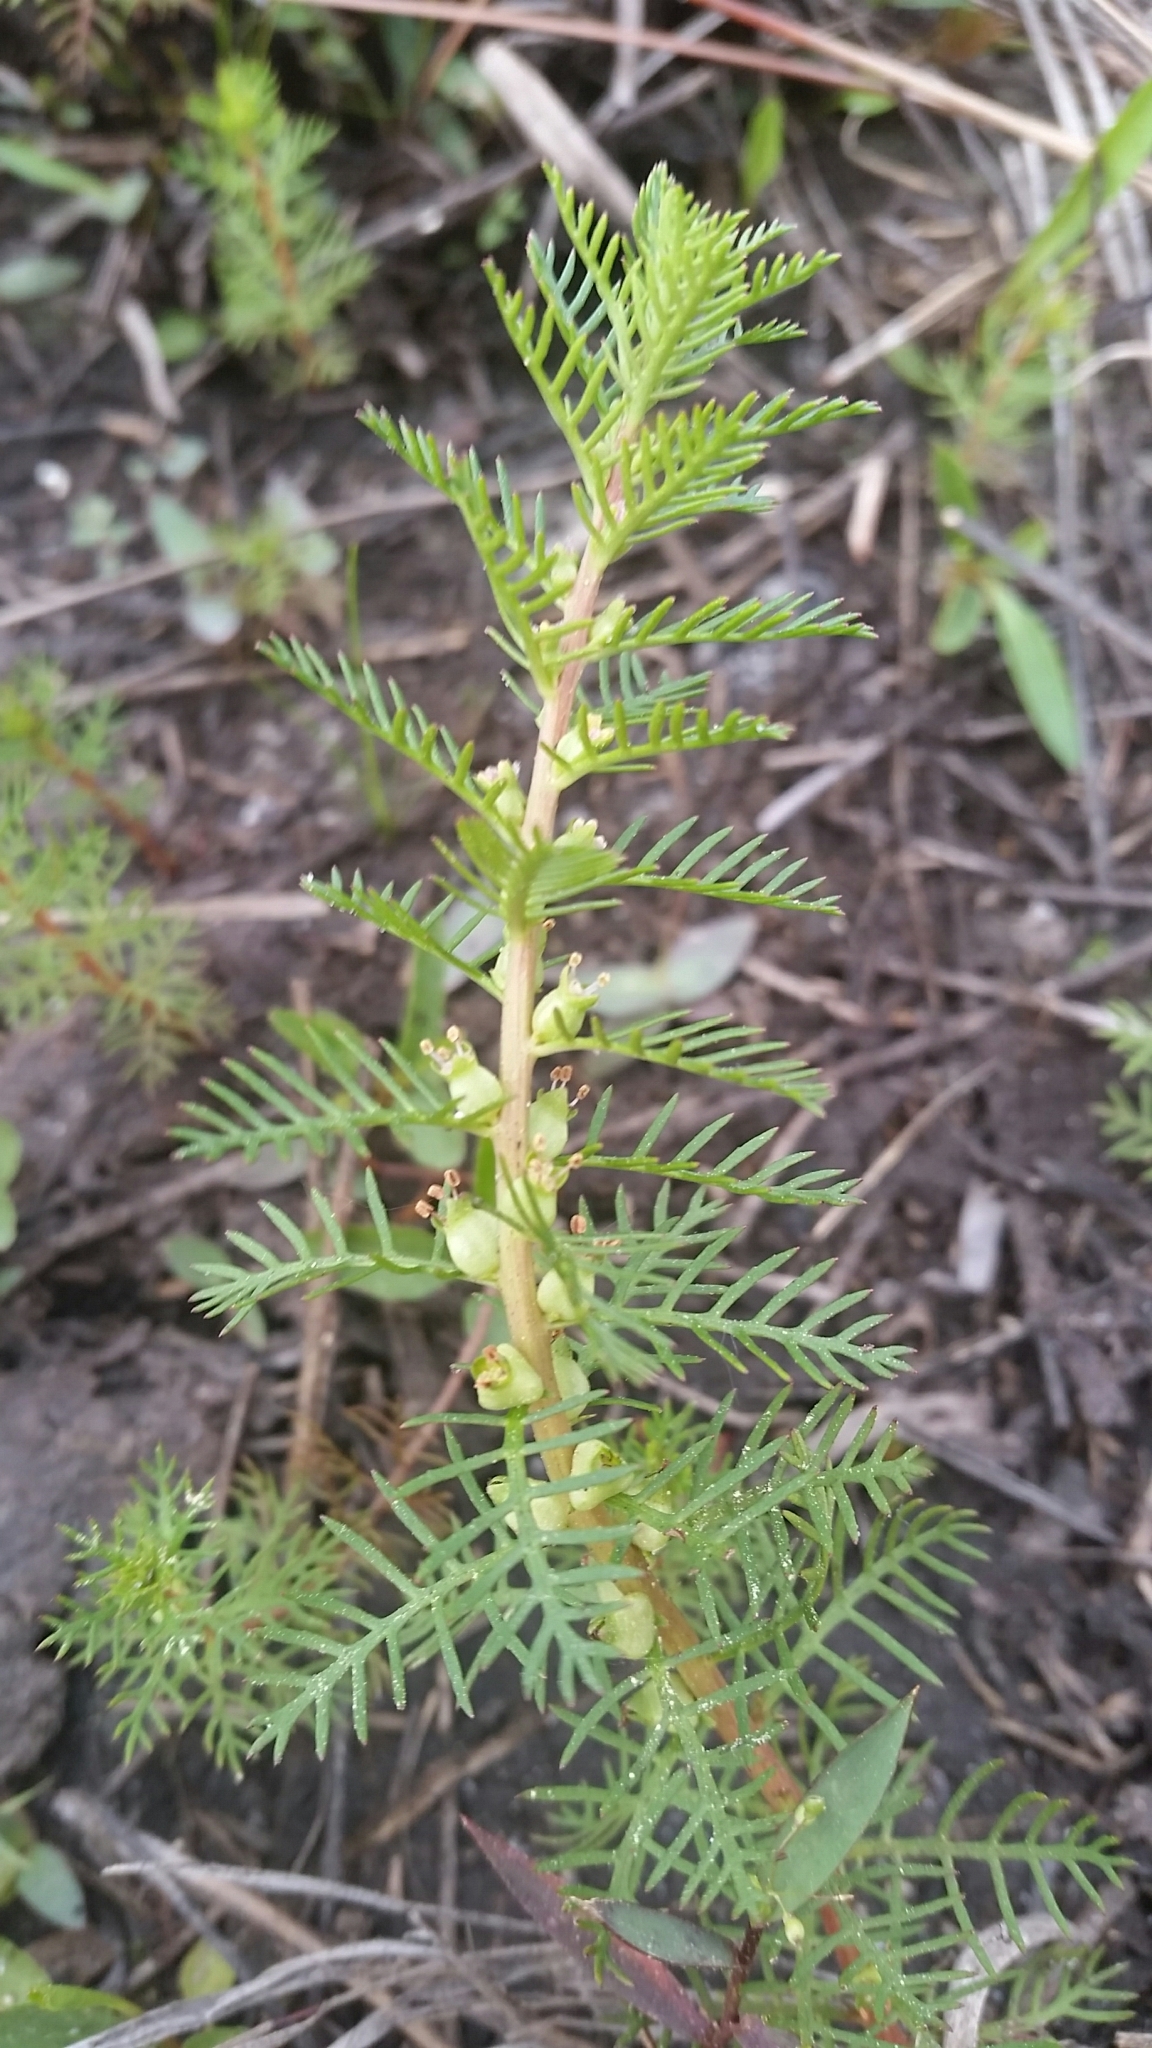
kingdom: Plantae
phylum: Tracheophyta
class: Magnoliopsida
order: Saxifragales
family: Haloragaceae
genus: Proserpinaca
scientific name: Proserpinaca pectinata
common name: Comb-leaved mermaidweed
